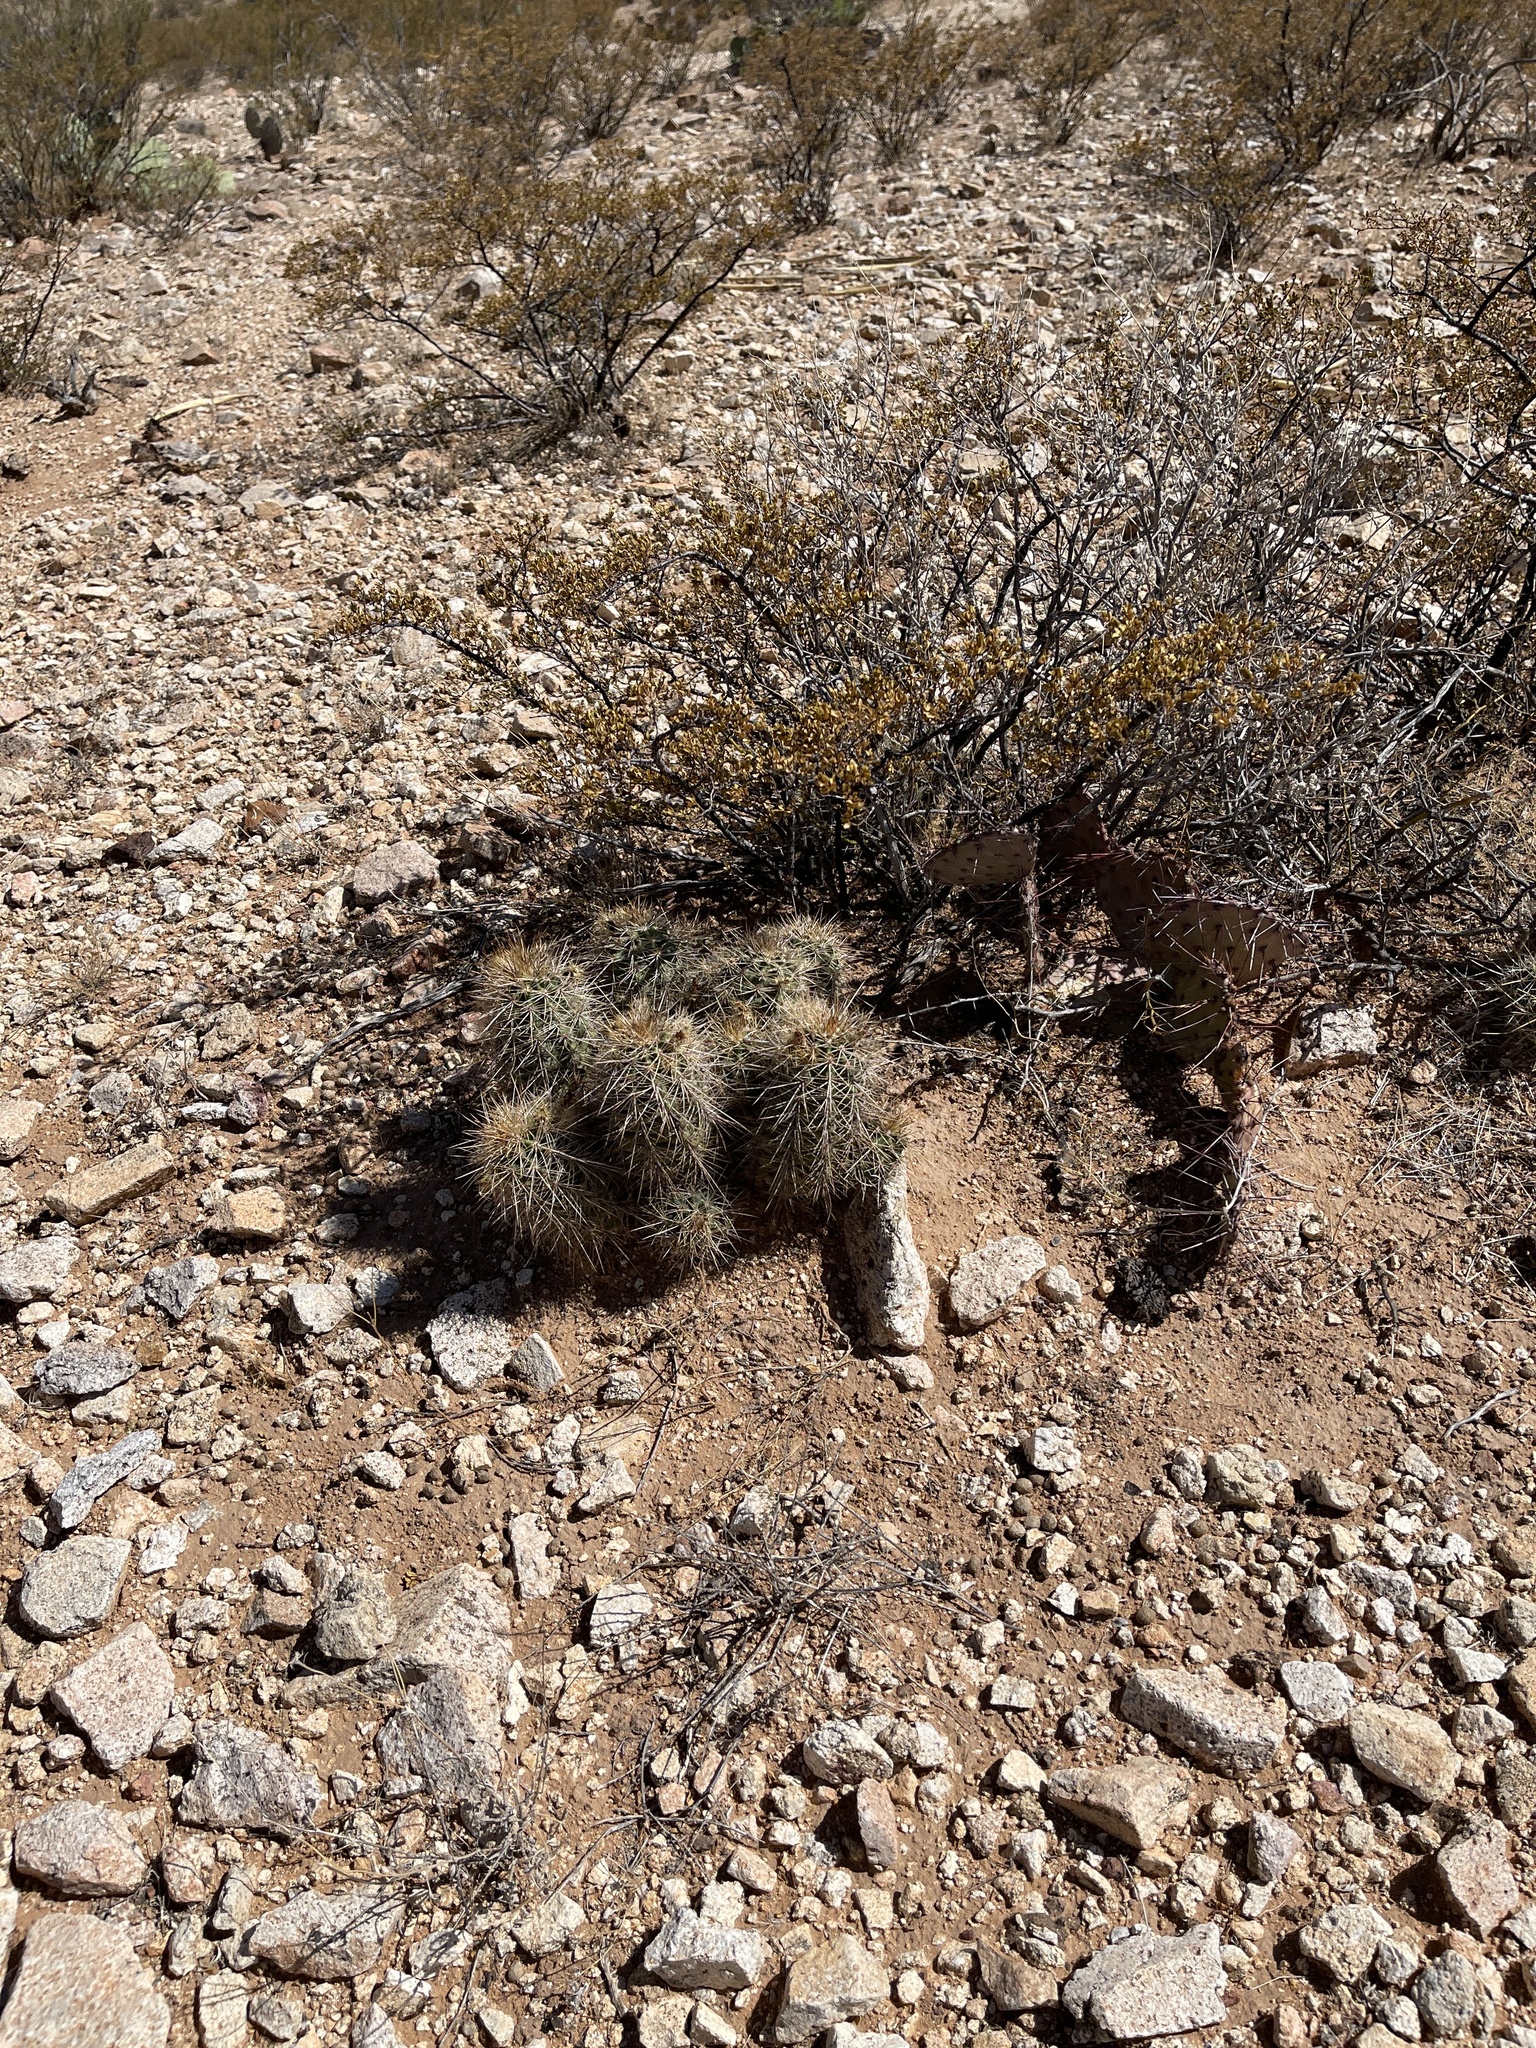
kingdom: Plantae
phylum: Tracheophyta
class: Magnoliopsida
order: Caryophyllales
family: Cactaceae
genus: Echinocereus
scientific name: Echinocereus coccineus
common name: Scarlet hedgehog cactus
